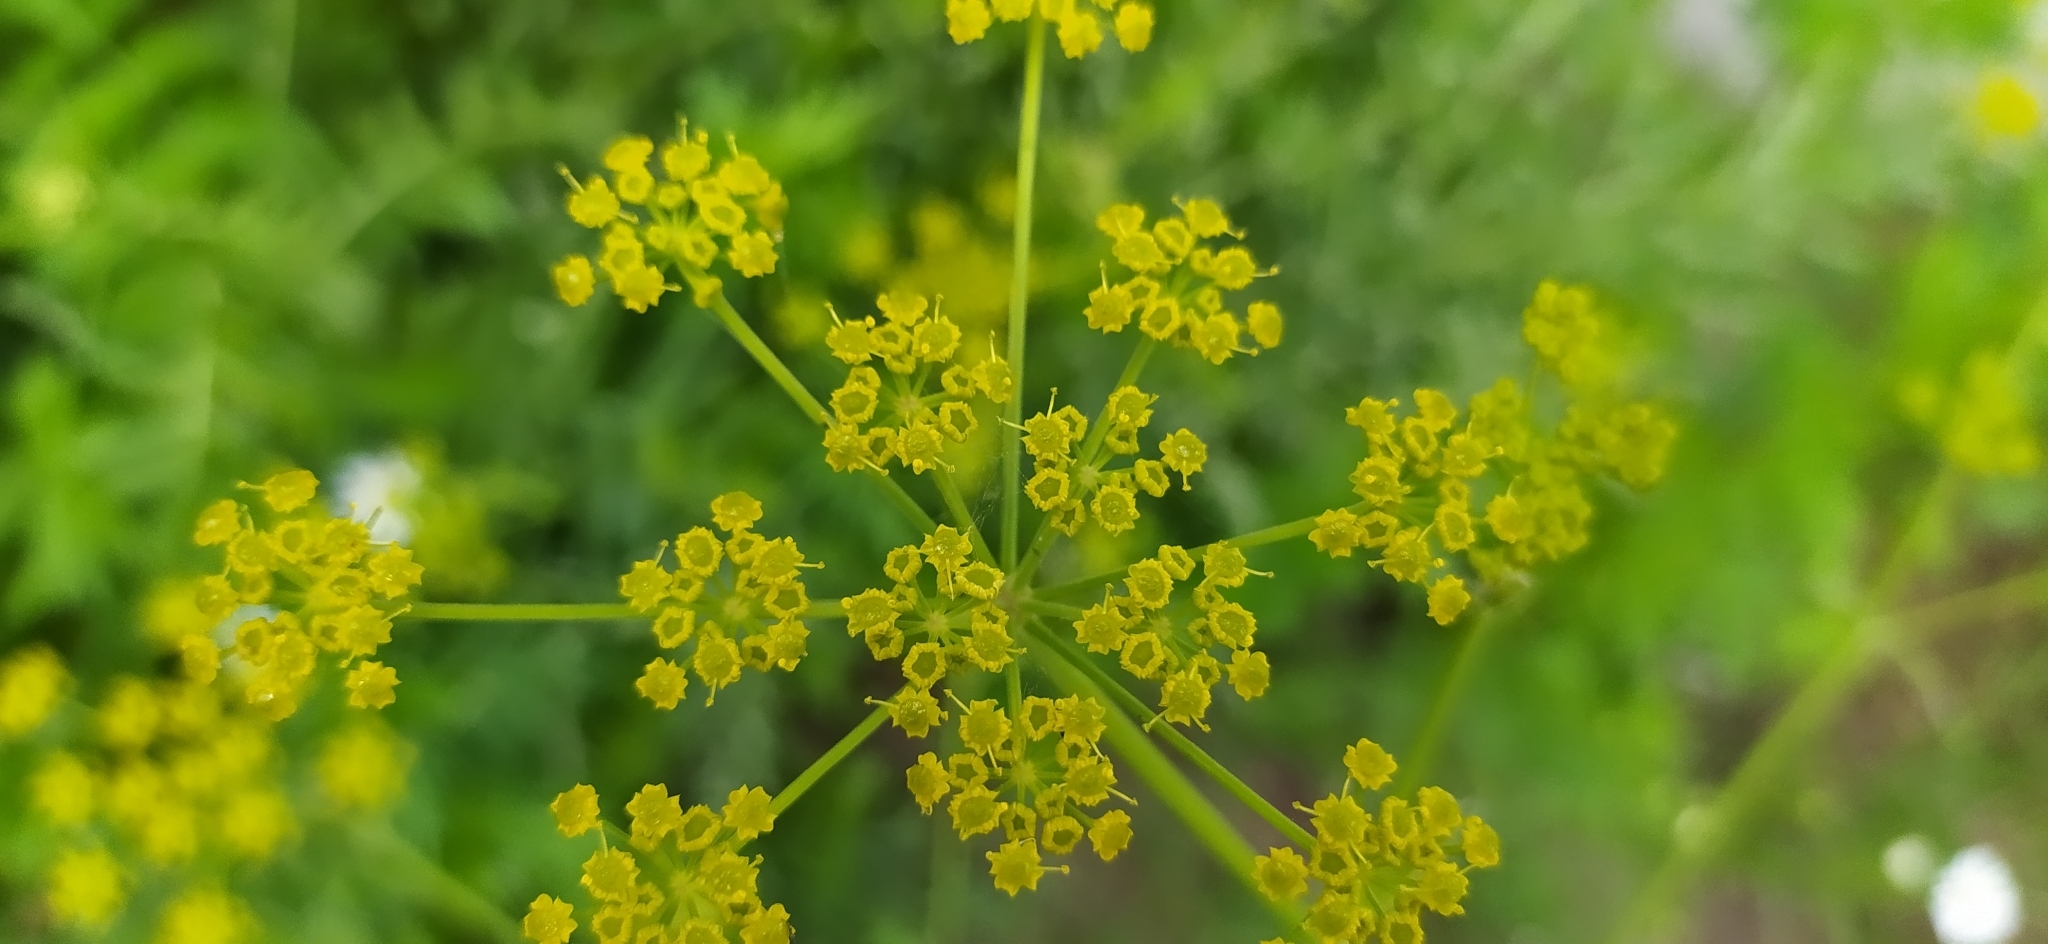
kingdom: Plantae
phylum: Tracheophyta
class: Magnoliopsida
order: Apiales
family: Apiaceae
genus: Pastinaca
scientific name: Pastinaca sativa
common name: Wild parsnip
